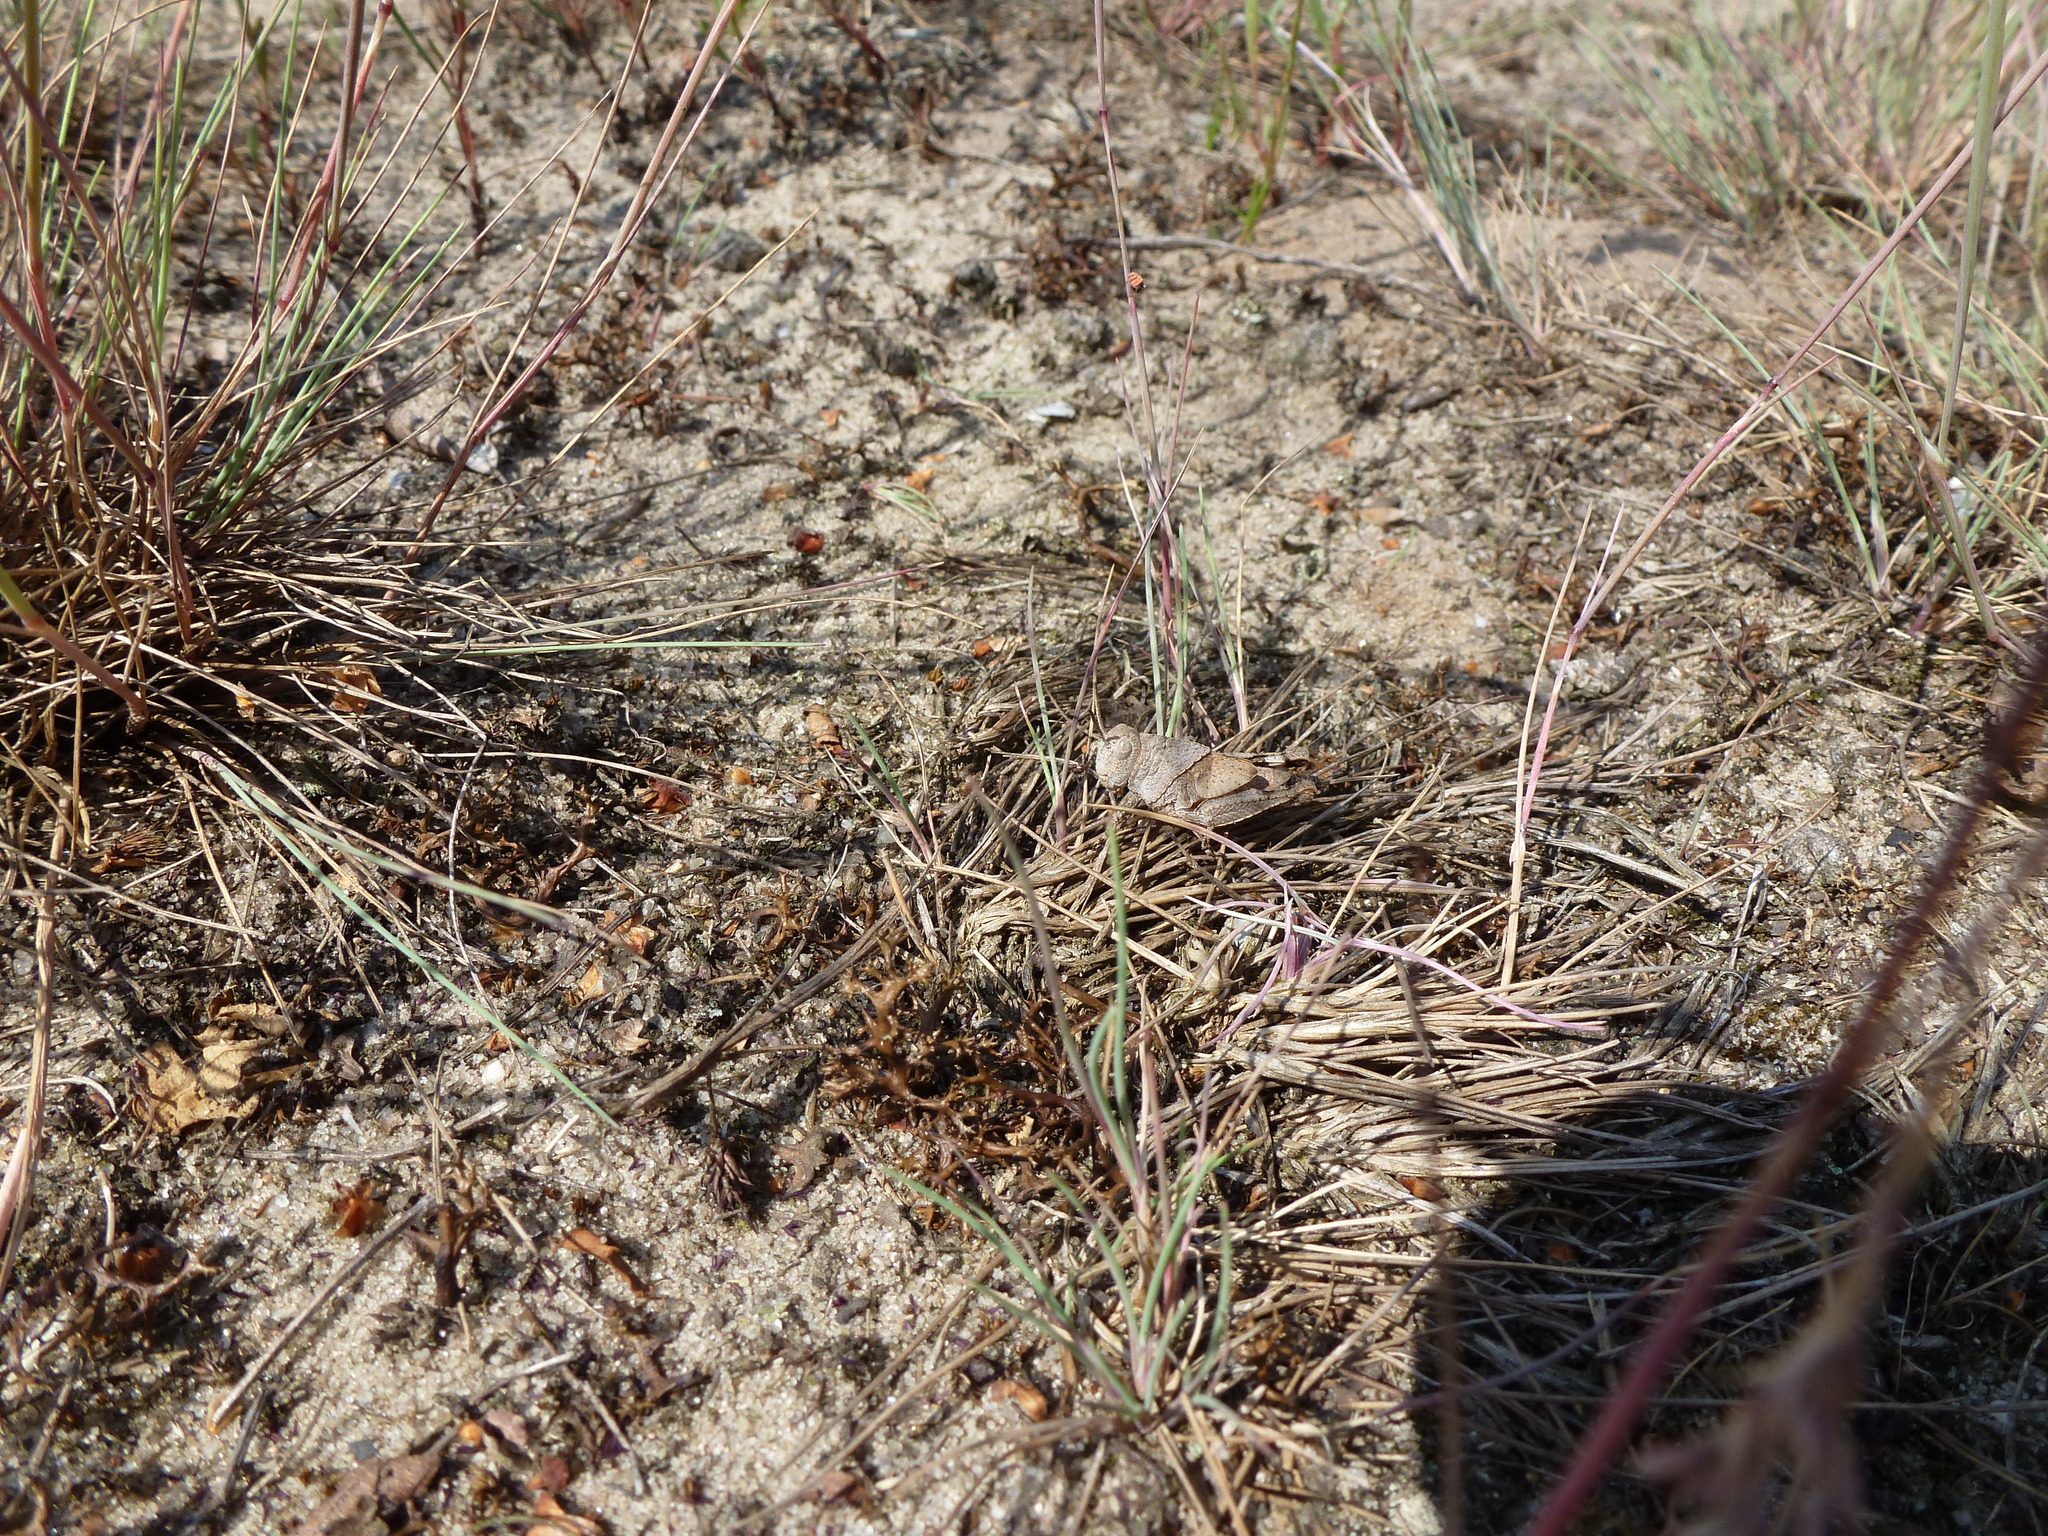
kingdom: Animalia
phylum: Arthropoda
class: Insecta
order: Orthoptera
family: Acrididae
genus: Oedipoda
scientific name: Oedipoda caerulescens
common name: Blue-winged grasshopper
